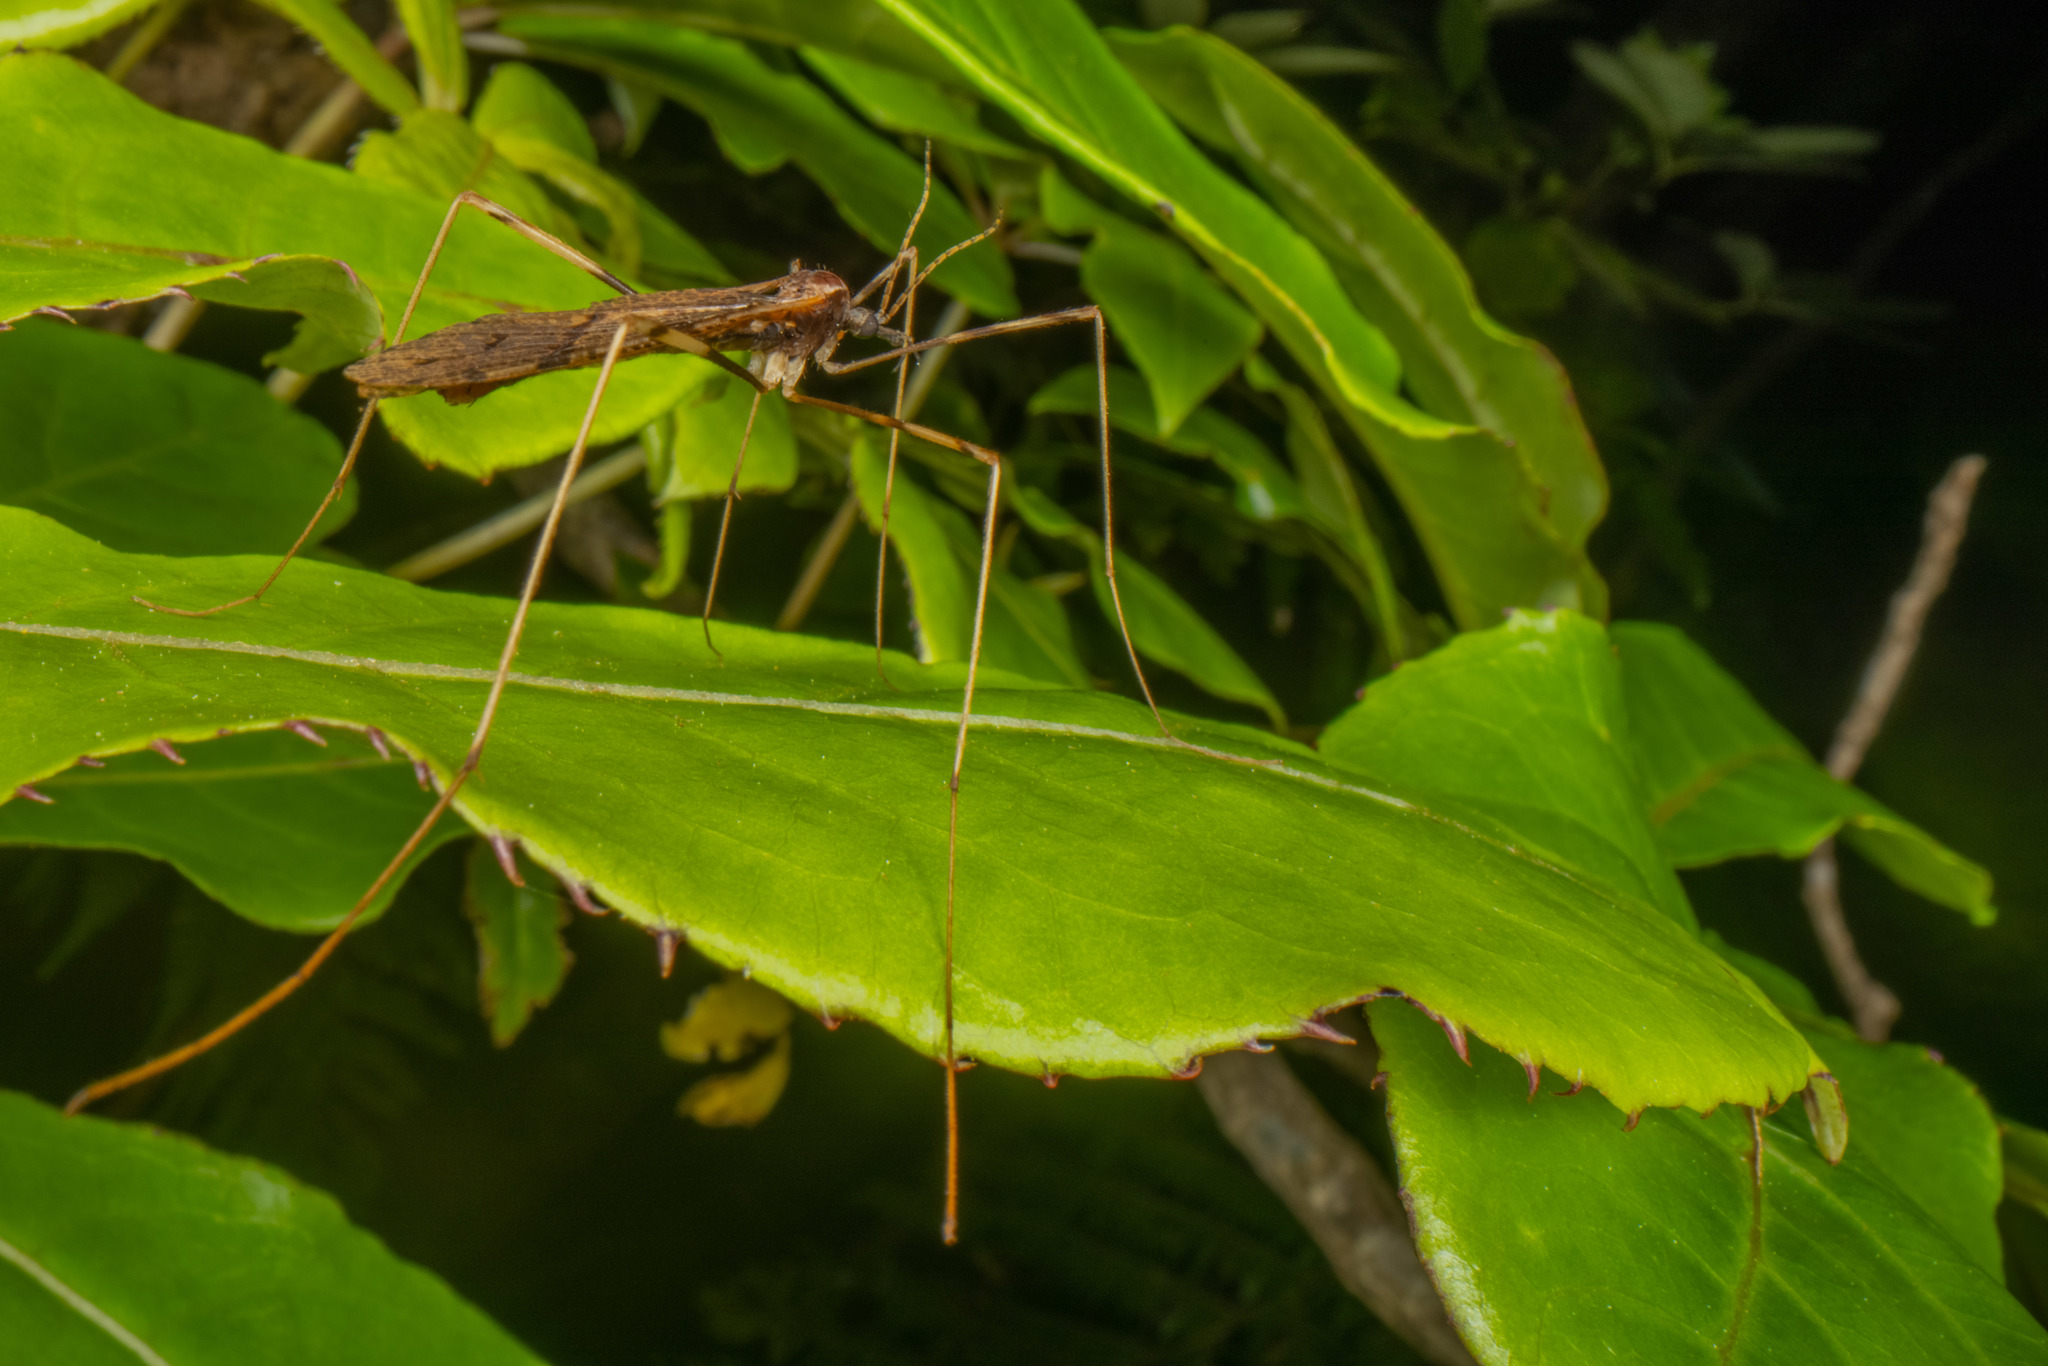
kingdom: Animalia
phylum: Arthropoda
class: Insecta
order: Diptera
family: Limoniidae
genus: Rhamphophila
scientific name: Rhamphophila sinistra
